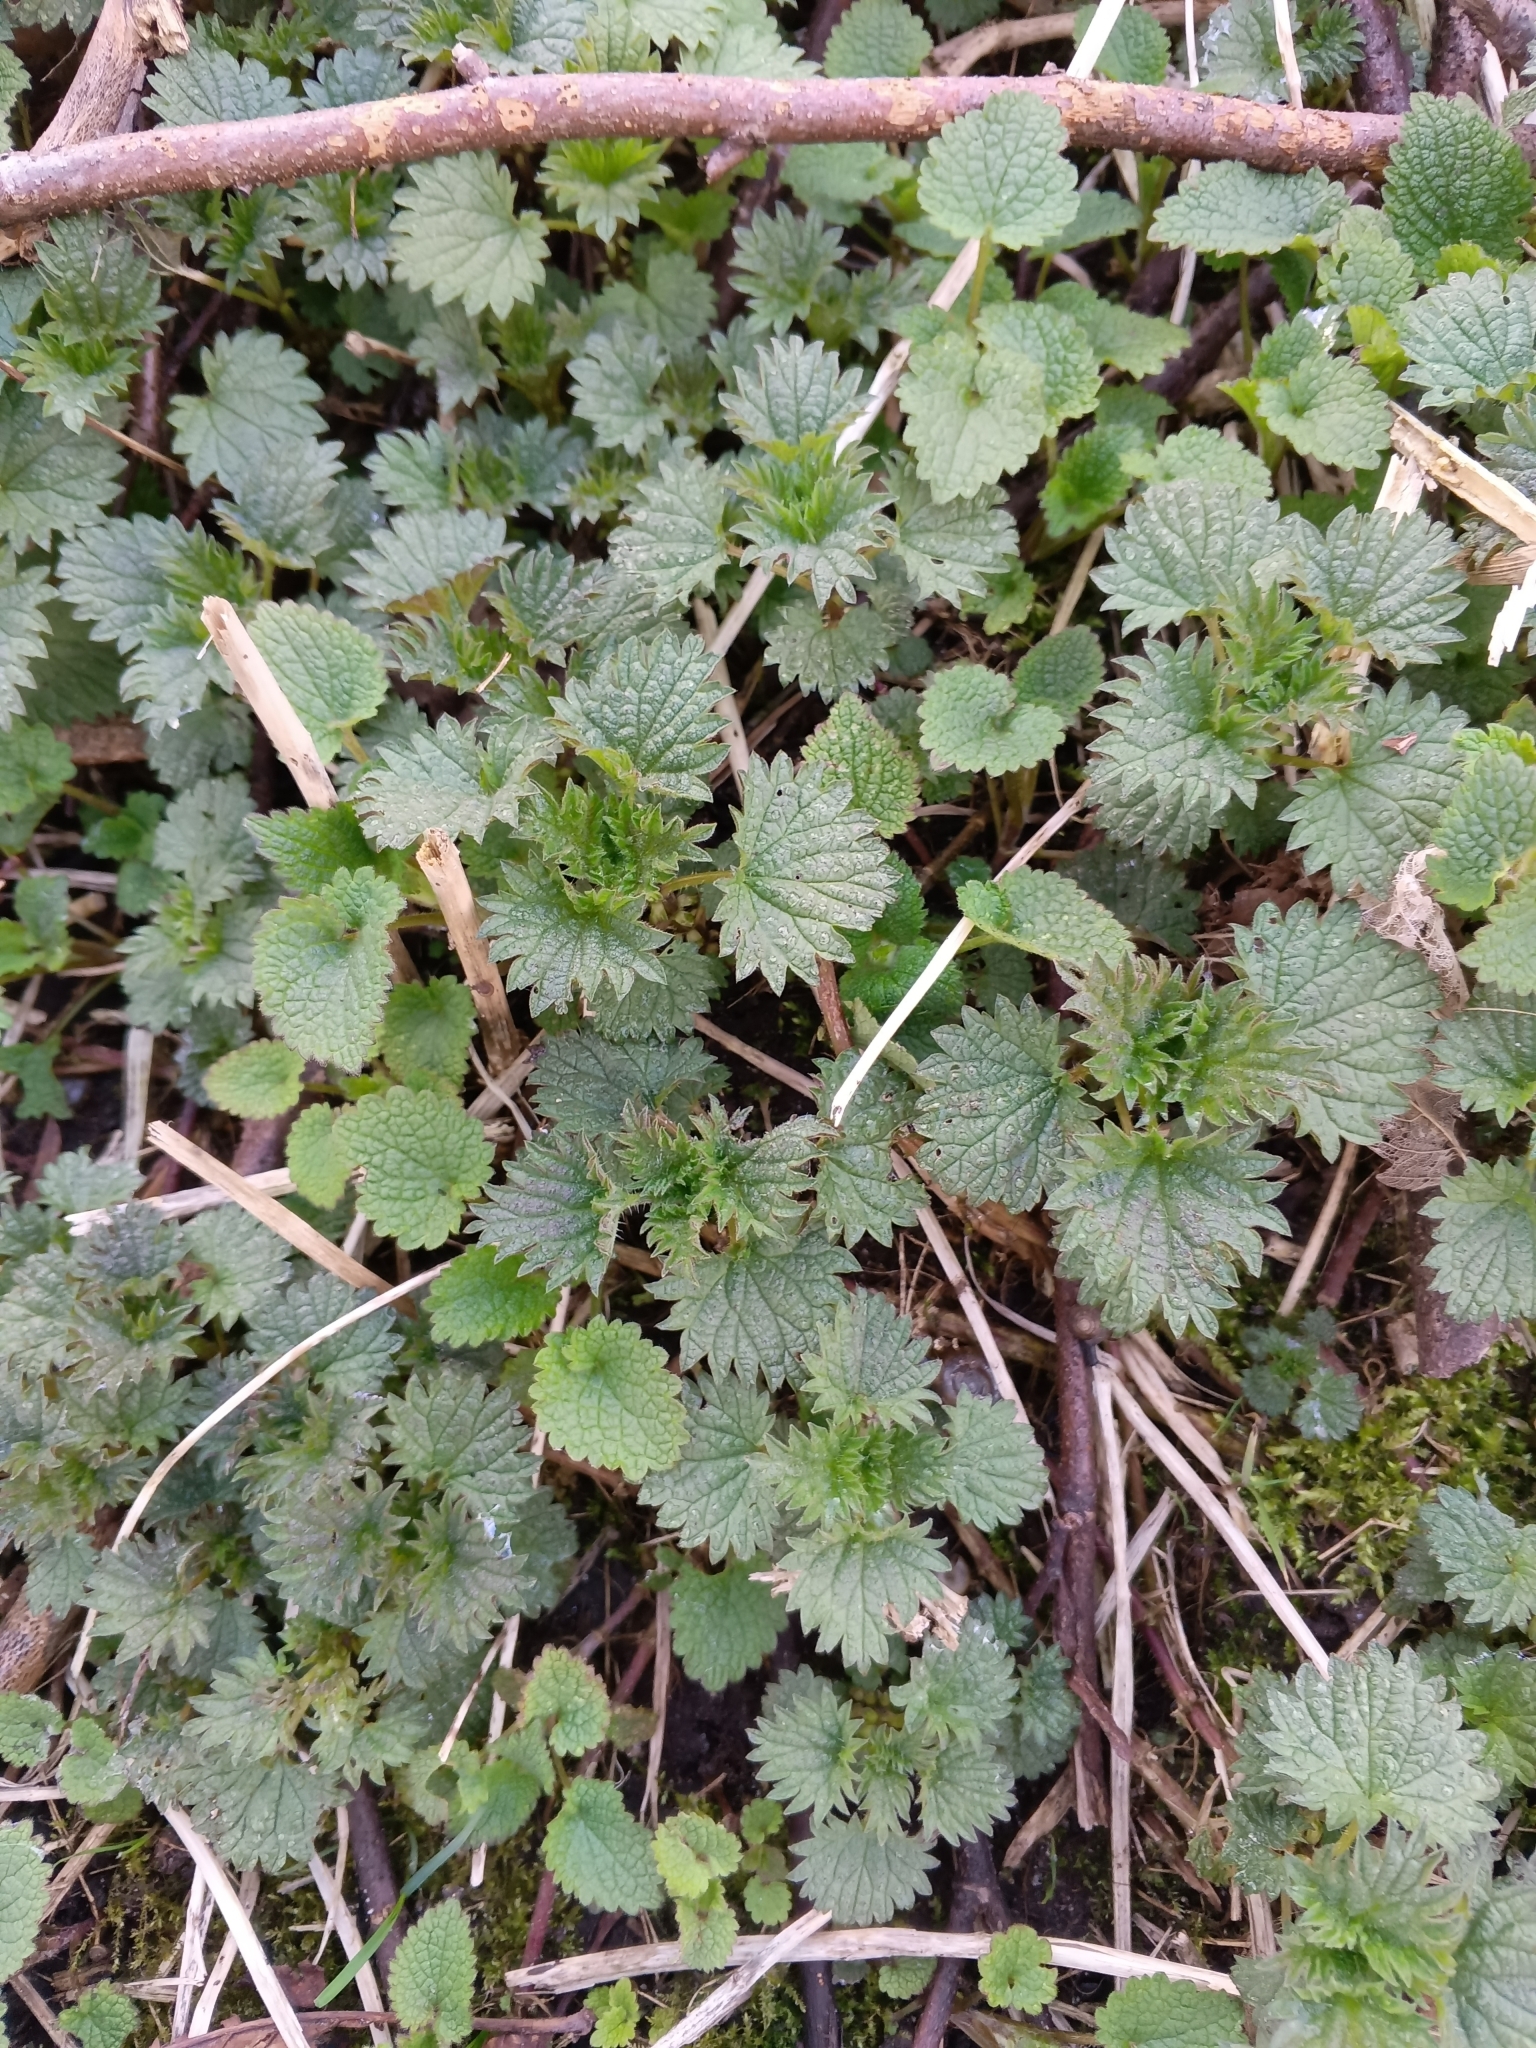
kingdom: Plantae
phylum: Tracheophyta
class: Magnoliopsida
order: Rosales
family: Urticaceae
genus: Urtica
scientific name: Urtica dioica
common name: Common nettle
